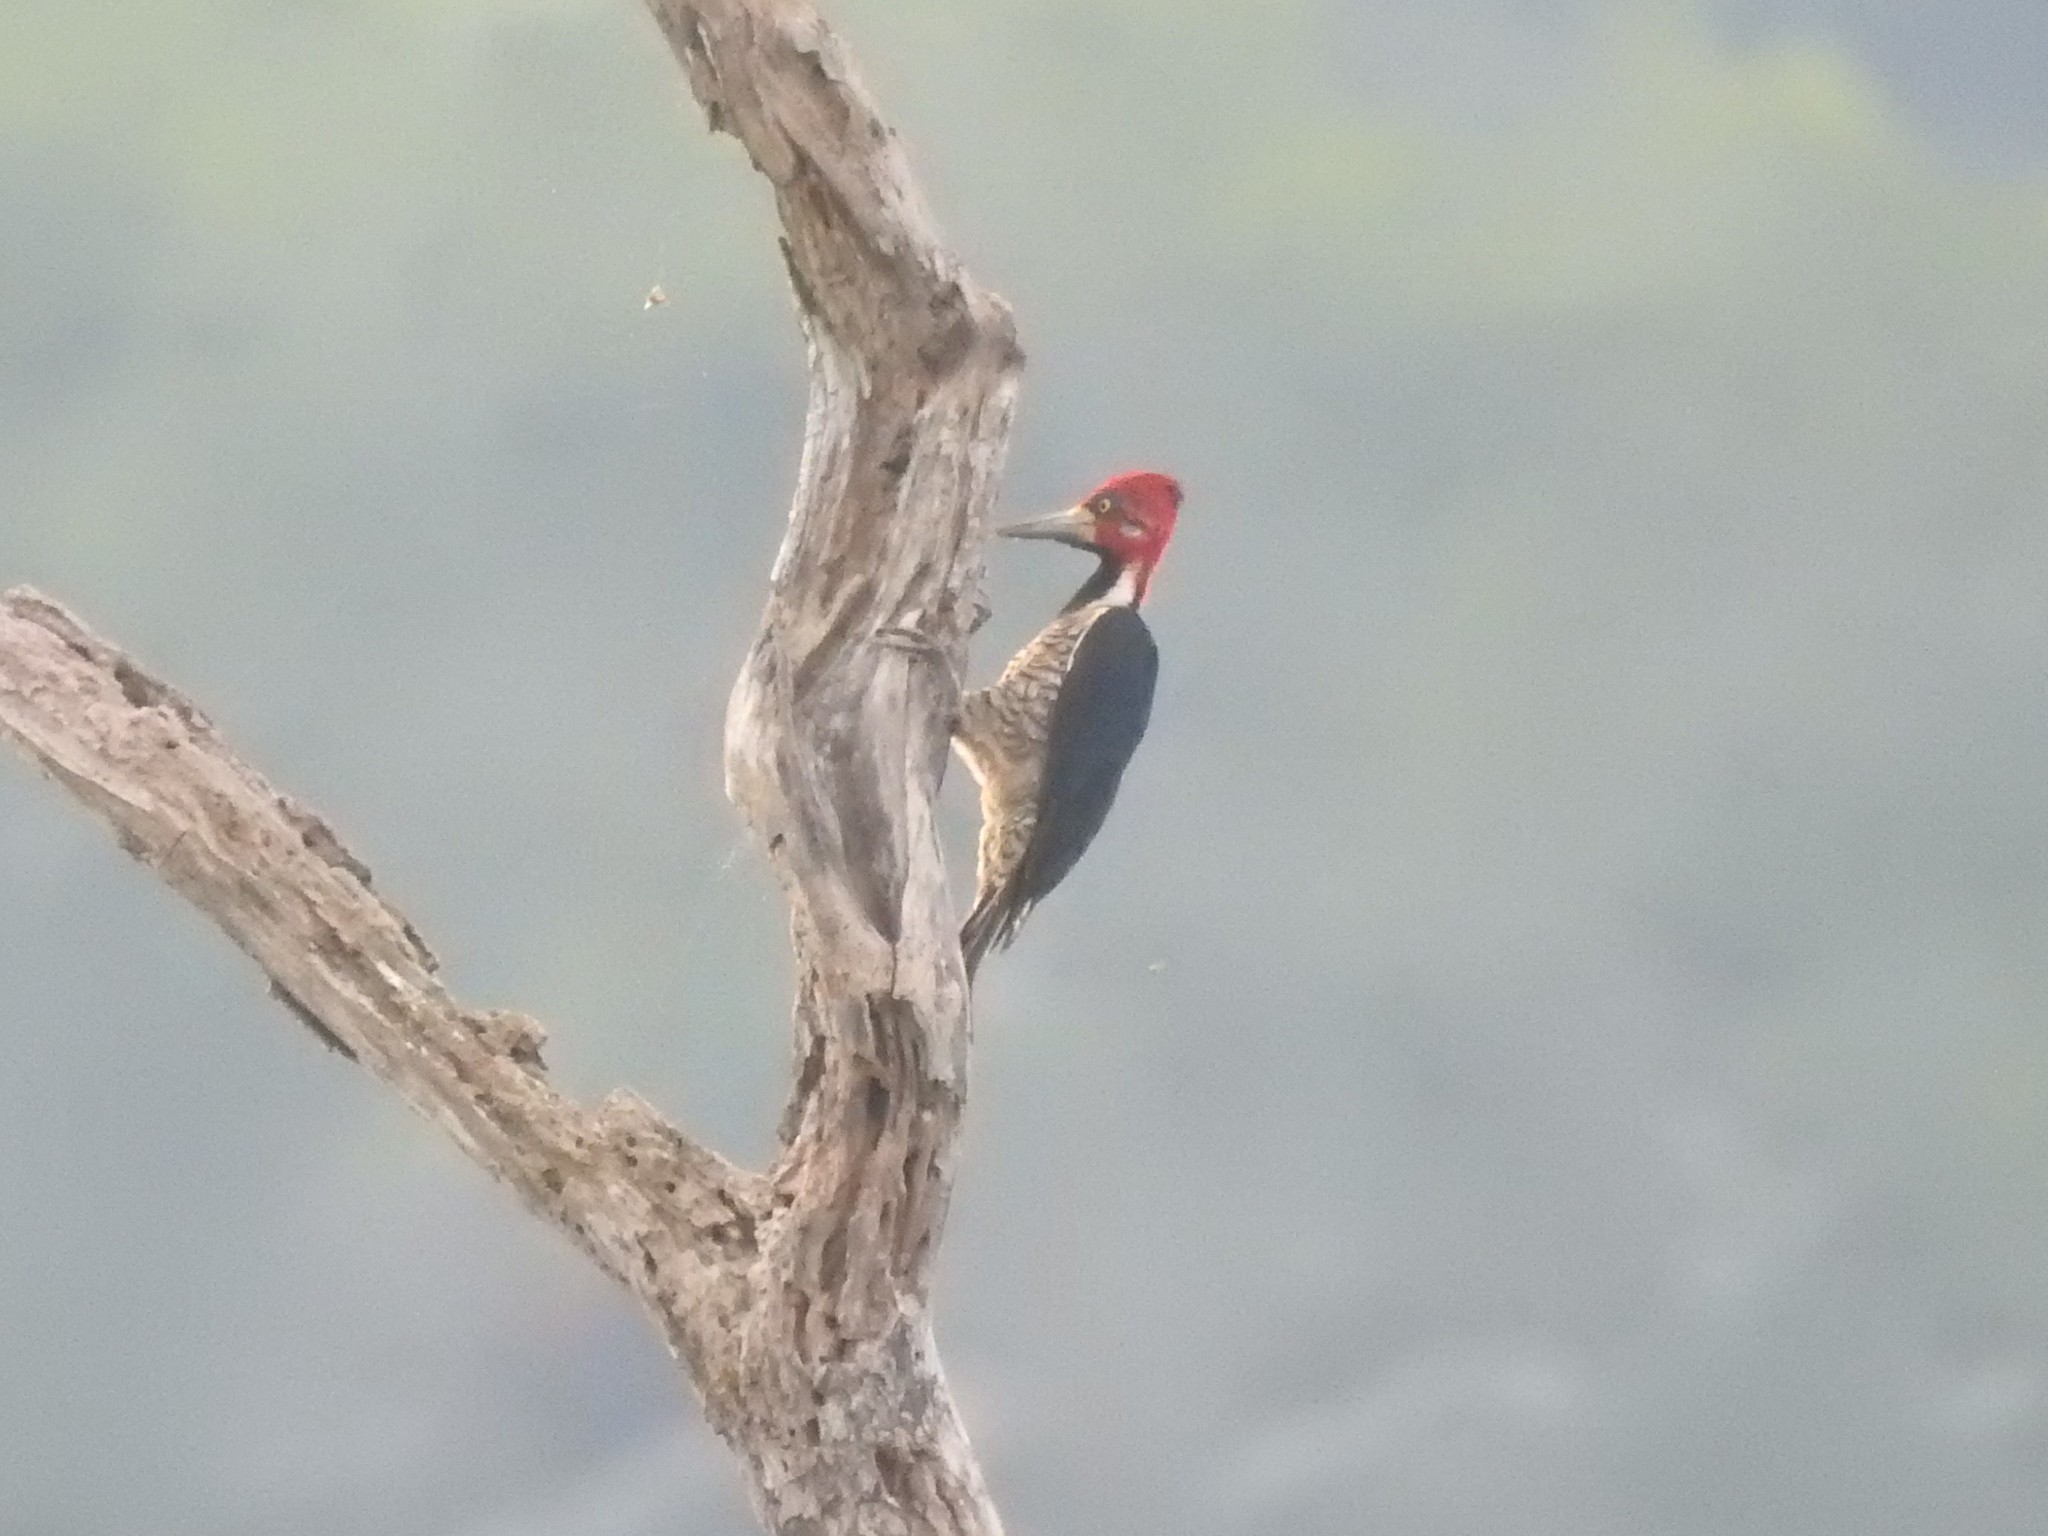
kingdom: Animalia
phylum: Chordata
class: Aves
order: Piciformes
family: Picidae
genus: Campephilus
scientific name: Campephilus melanoleucos
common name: Crimson-crested woodpecker
